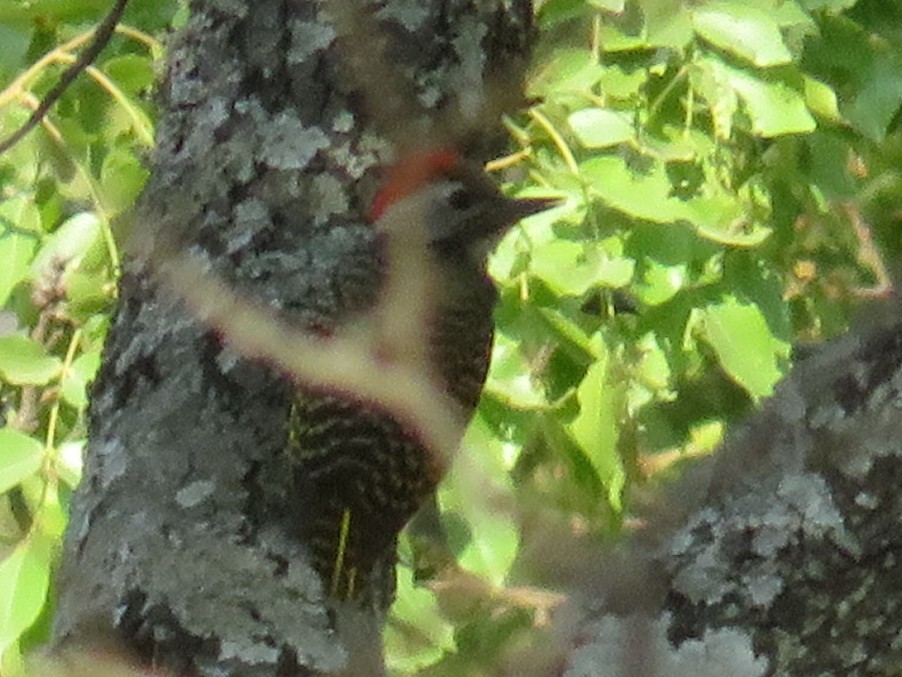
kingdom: Animalia
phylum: Chordata
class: Aves
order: Piciformes
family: Picidae
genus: Dendropicos
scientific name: Dendropicos fuscescens
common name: Cardinal woodpecker
